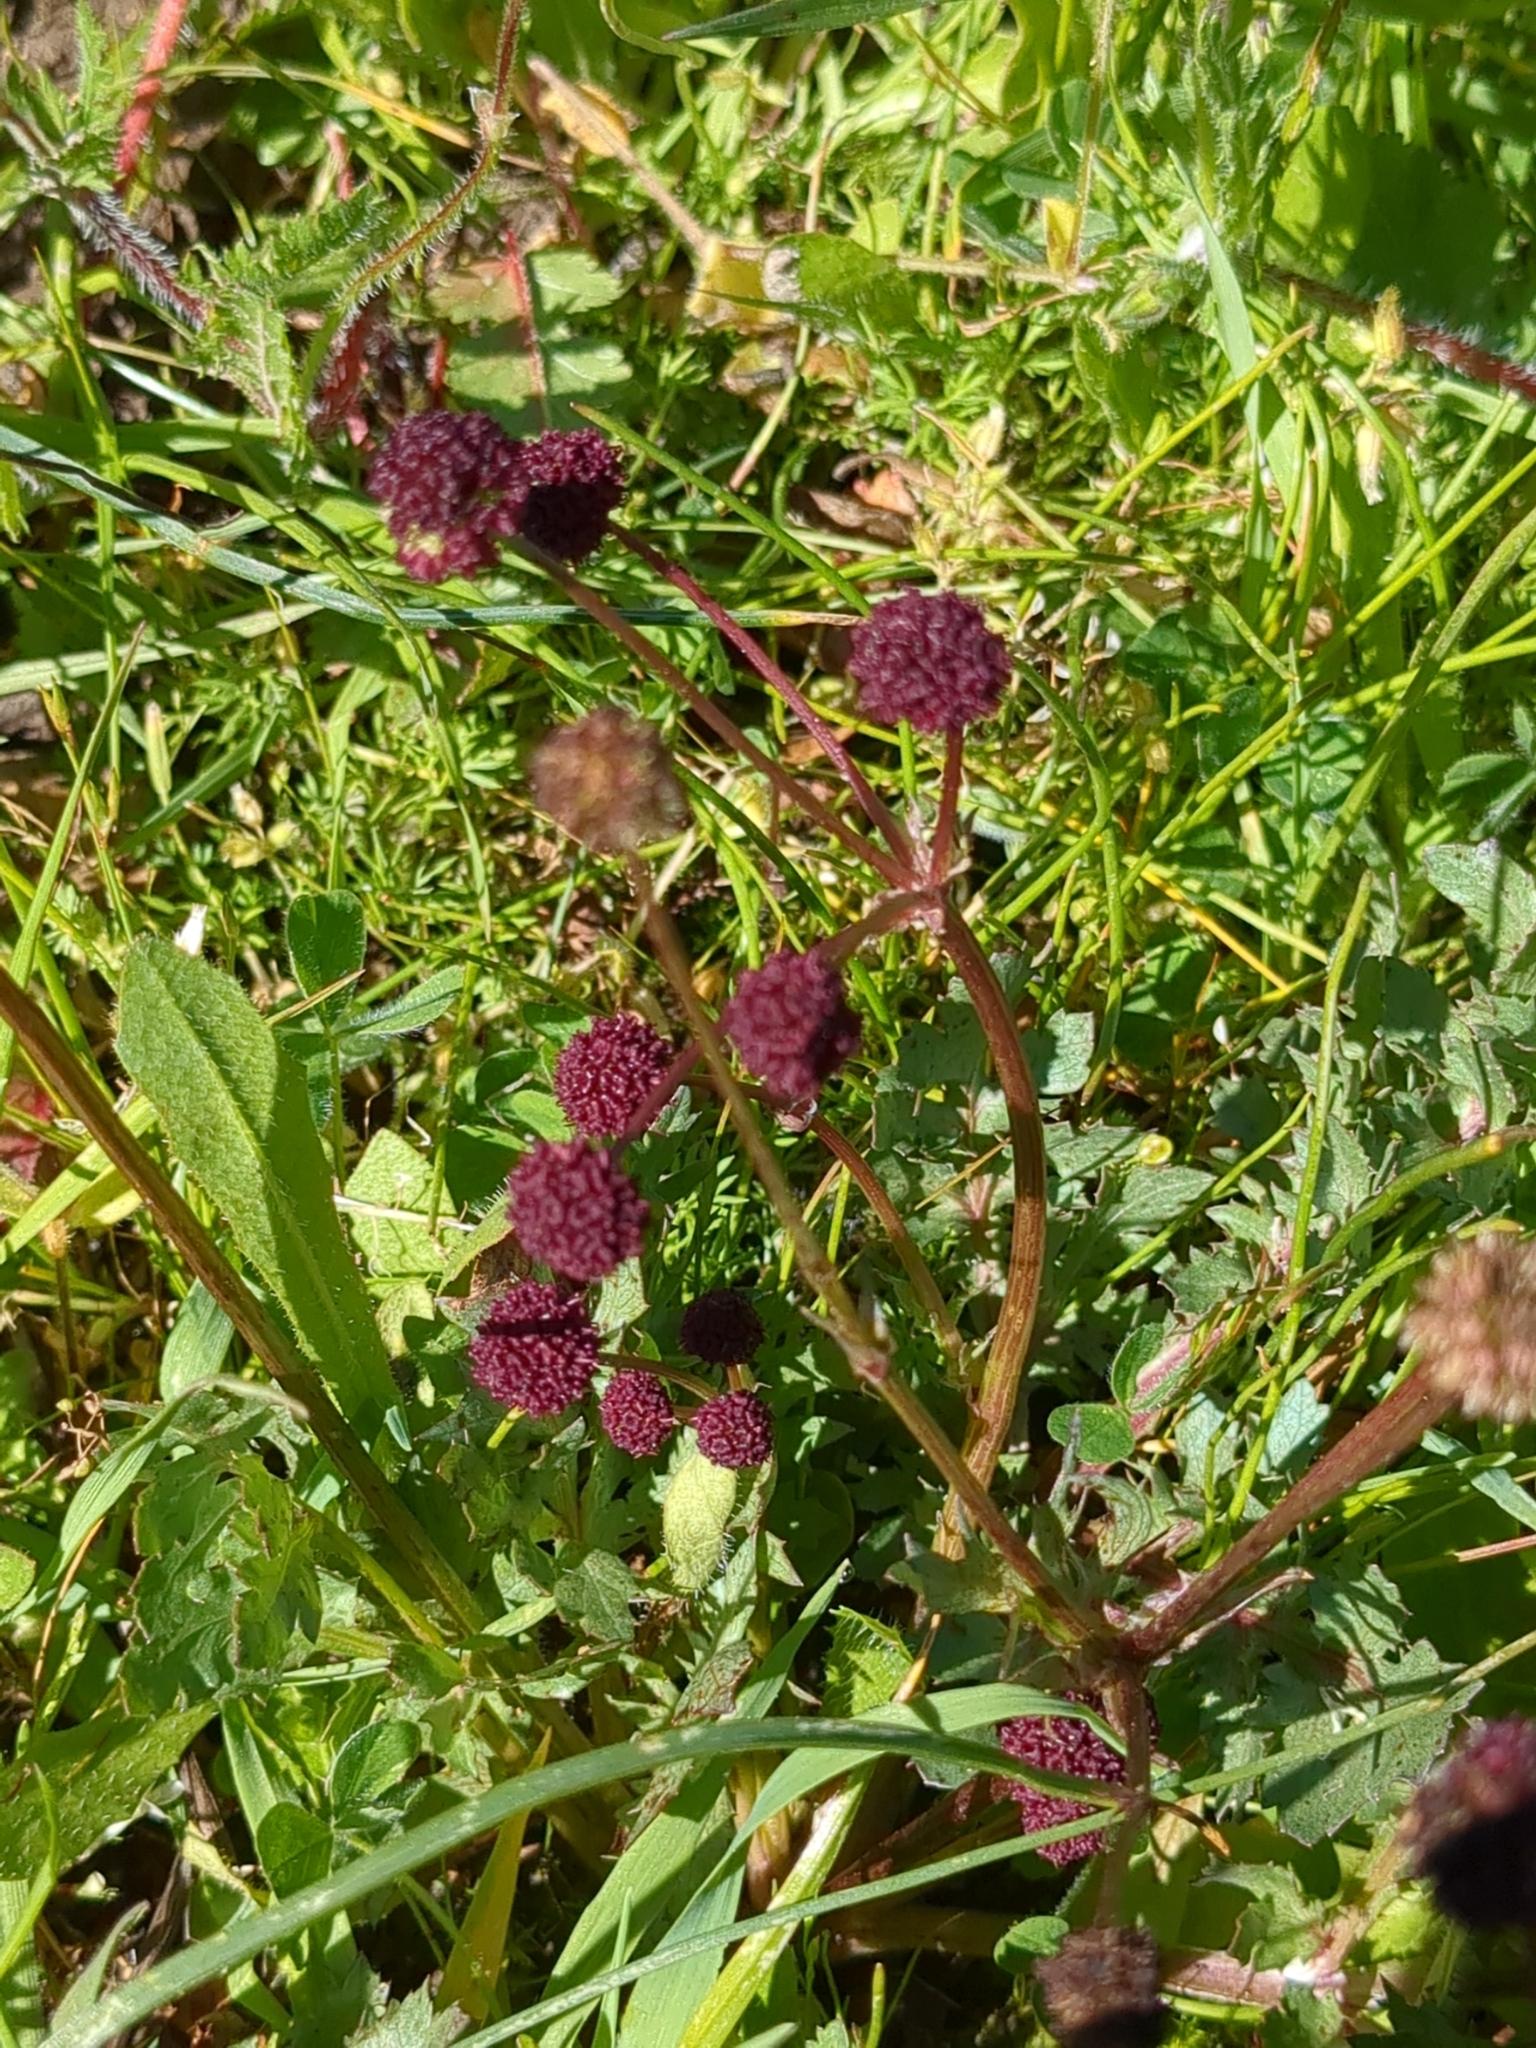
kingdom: Plantae
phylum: Tracheophyta
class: Magnoliopsida
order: Apiales
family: Apiaceae
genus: Sanicula
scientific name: Sanicula bipinnatifida
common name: Shoe-buttons
